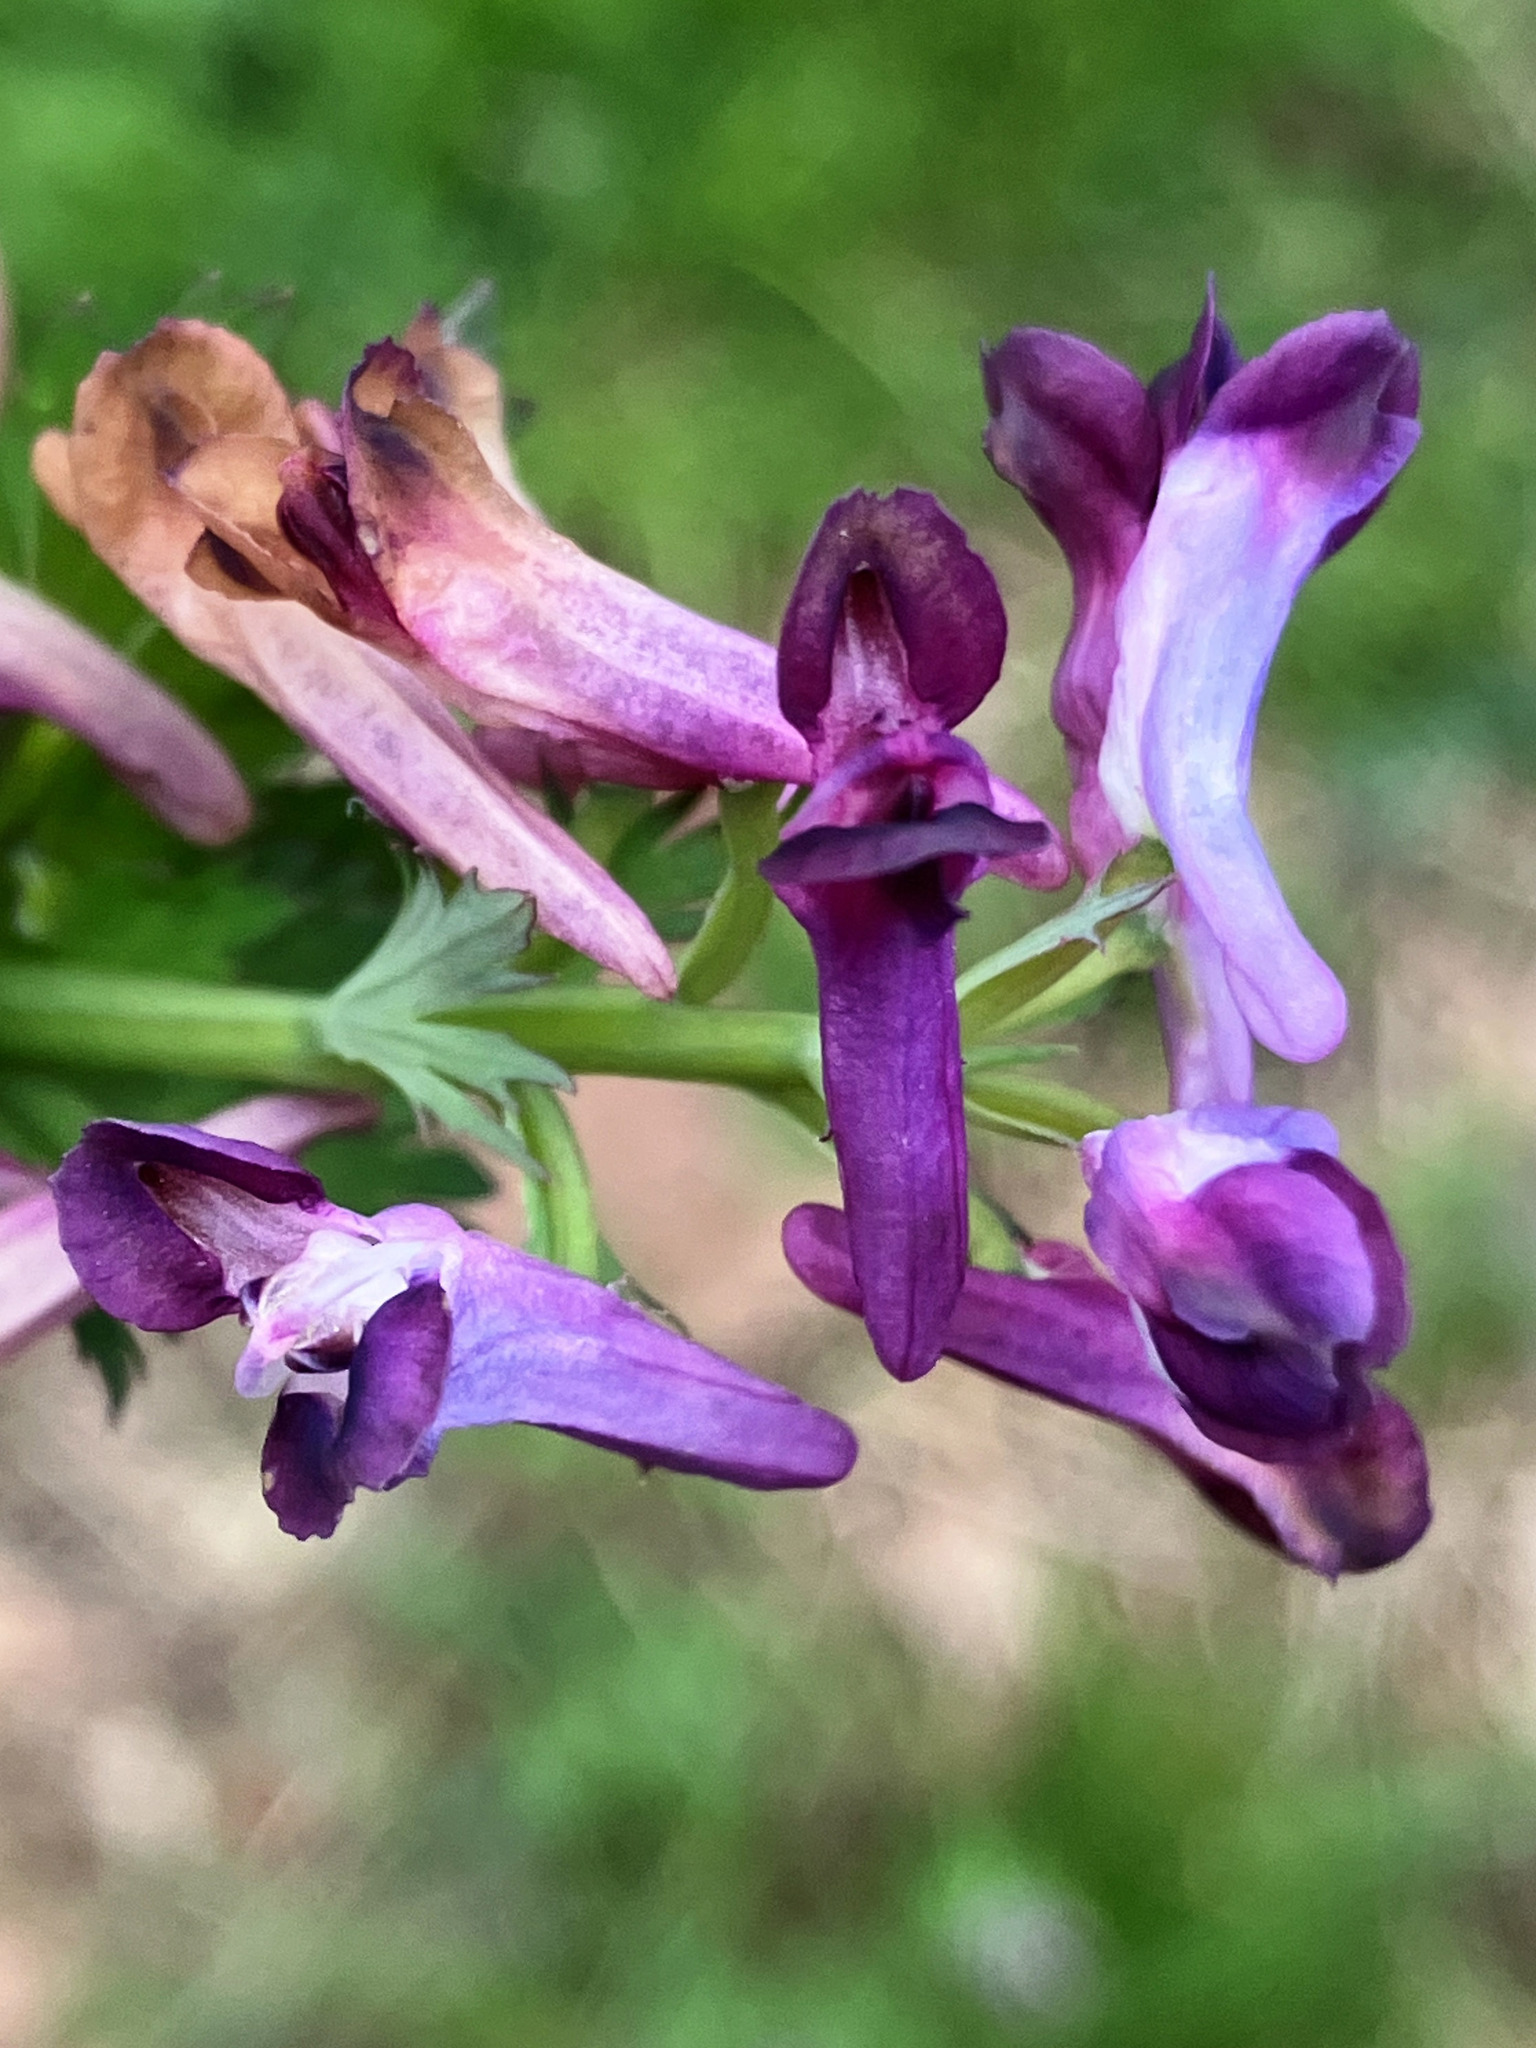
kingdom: Plantae
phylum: Tracheophyta
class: Magnoliopsida
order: Ranunculales
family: Papaveraceae
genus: Corydalis
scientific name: Corydalis incisa
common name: Incised fumewort
